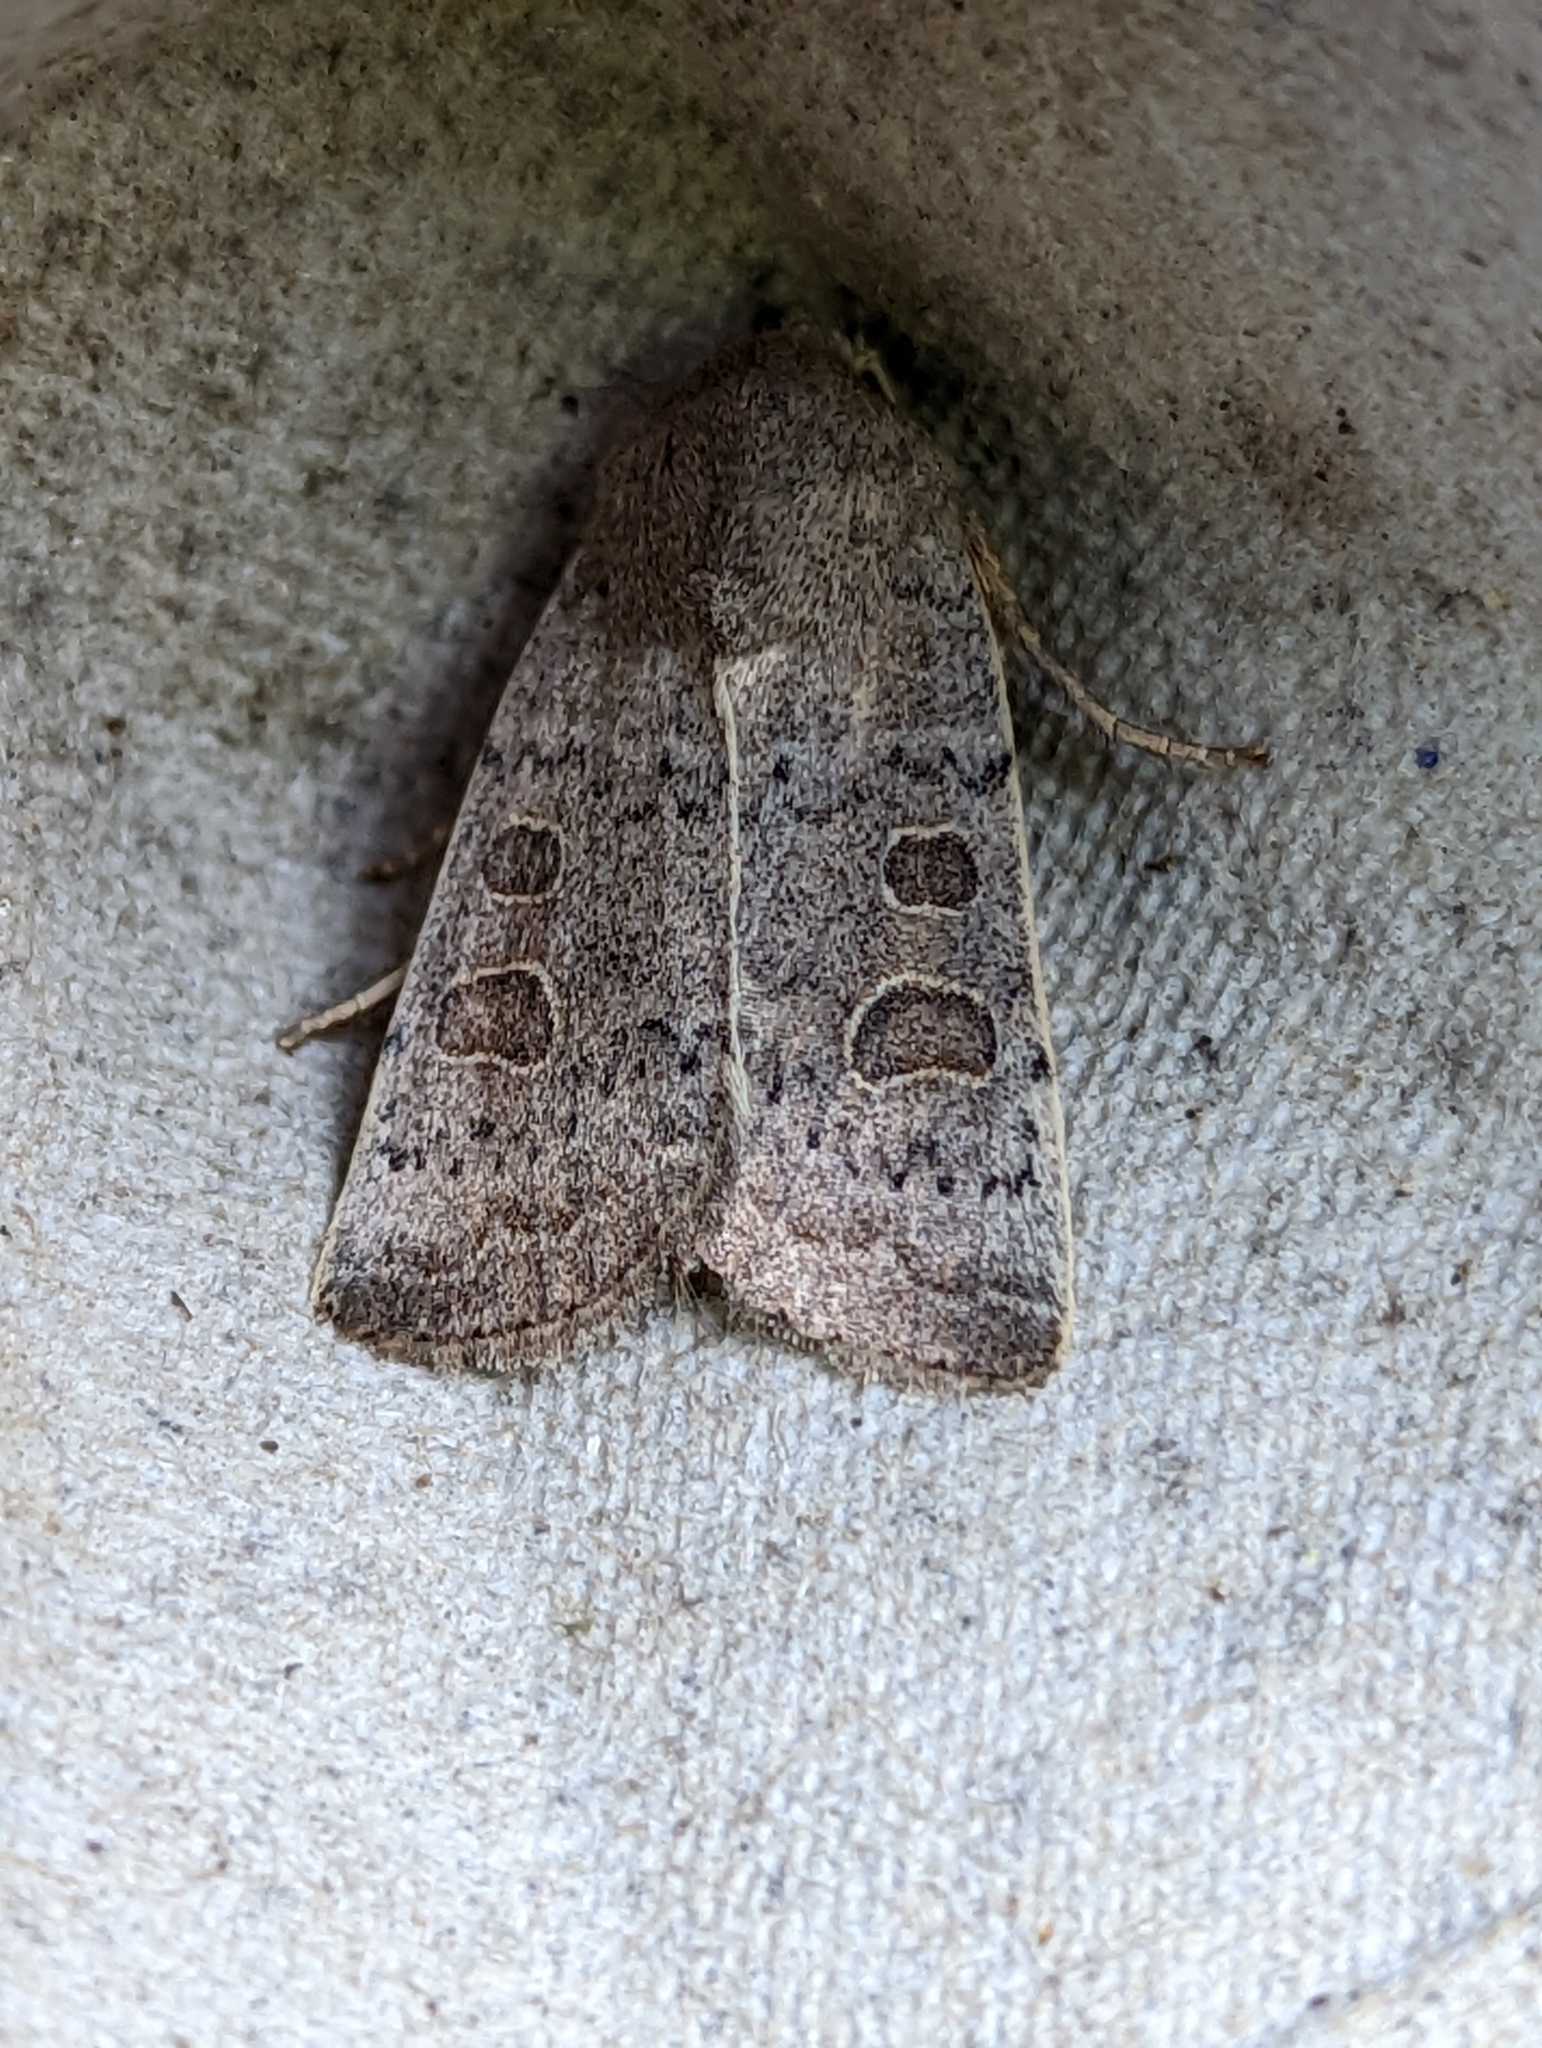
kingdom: Animalia
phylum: Arthropoda
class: Insecta
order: Lepidoptera
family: Noctuidae
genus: Hoplodrina
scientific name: Hoplodrina ambigua
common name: Vine's rustic
